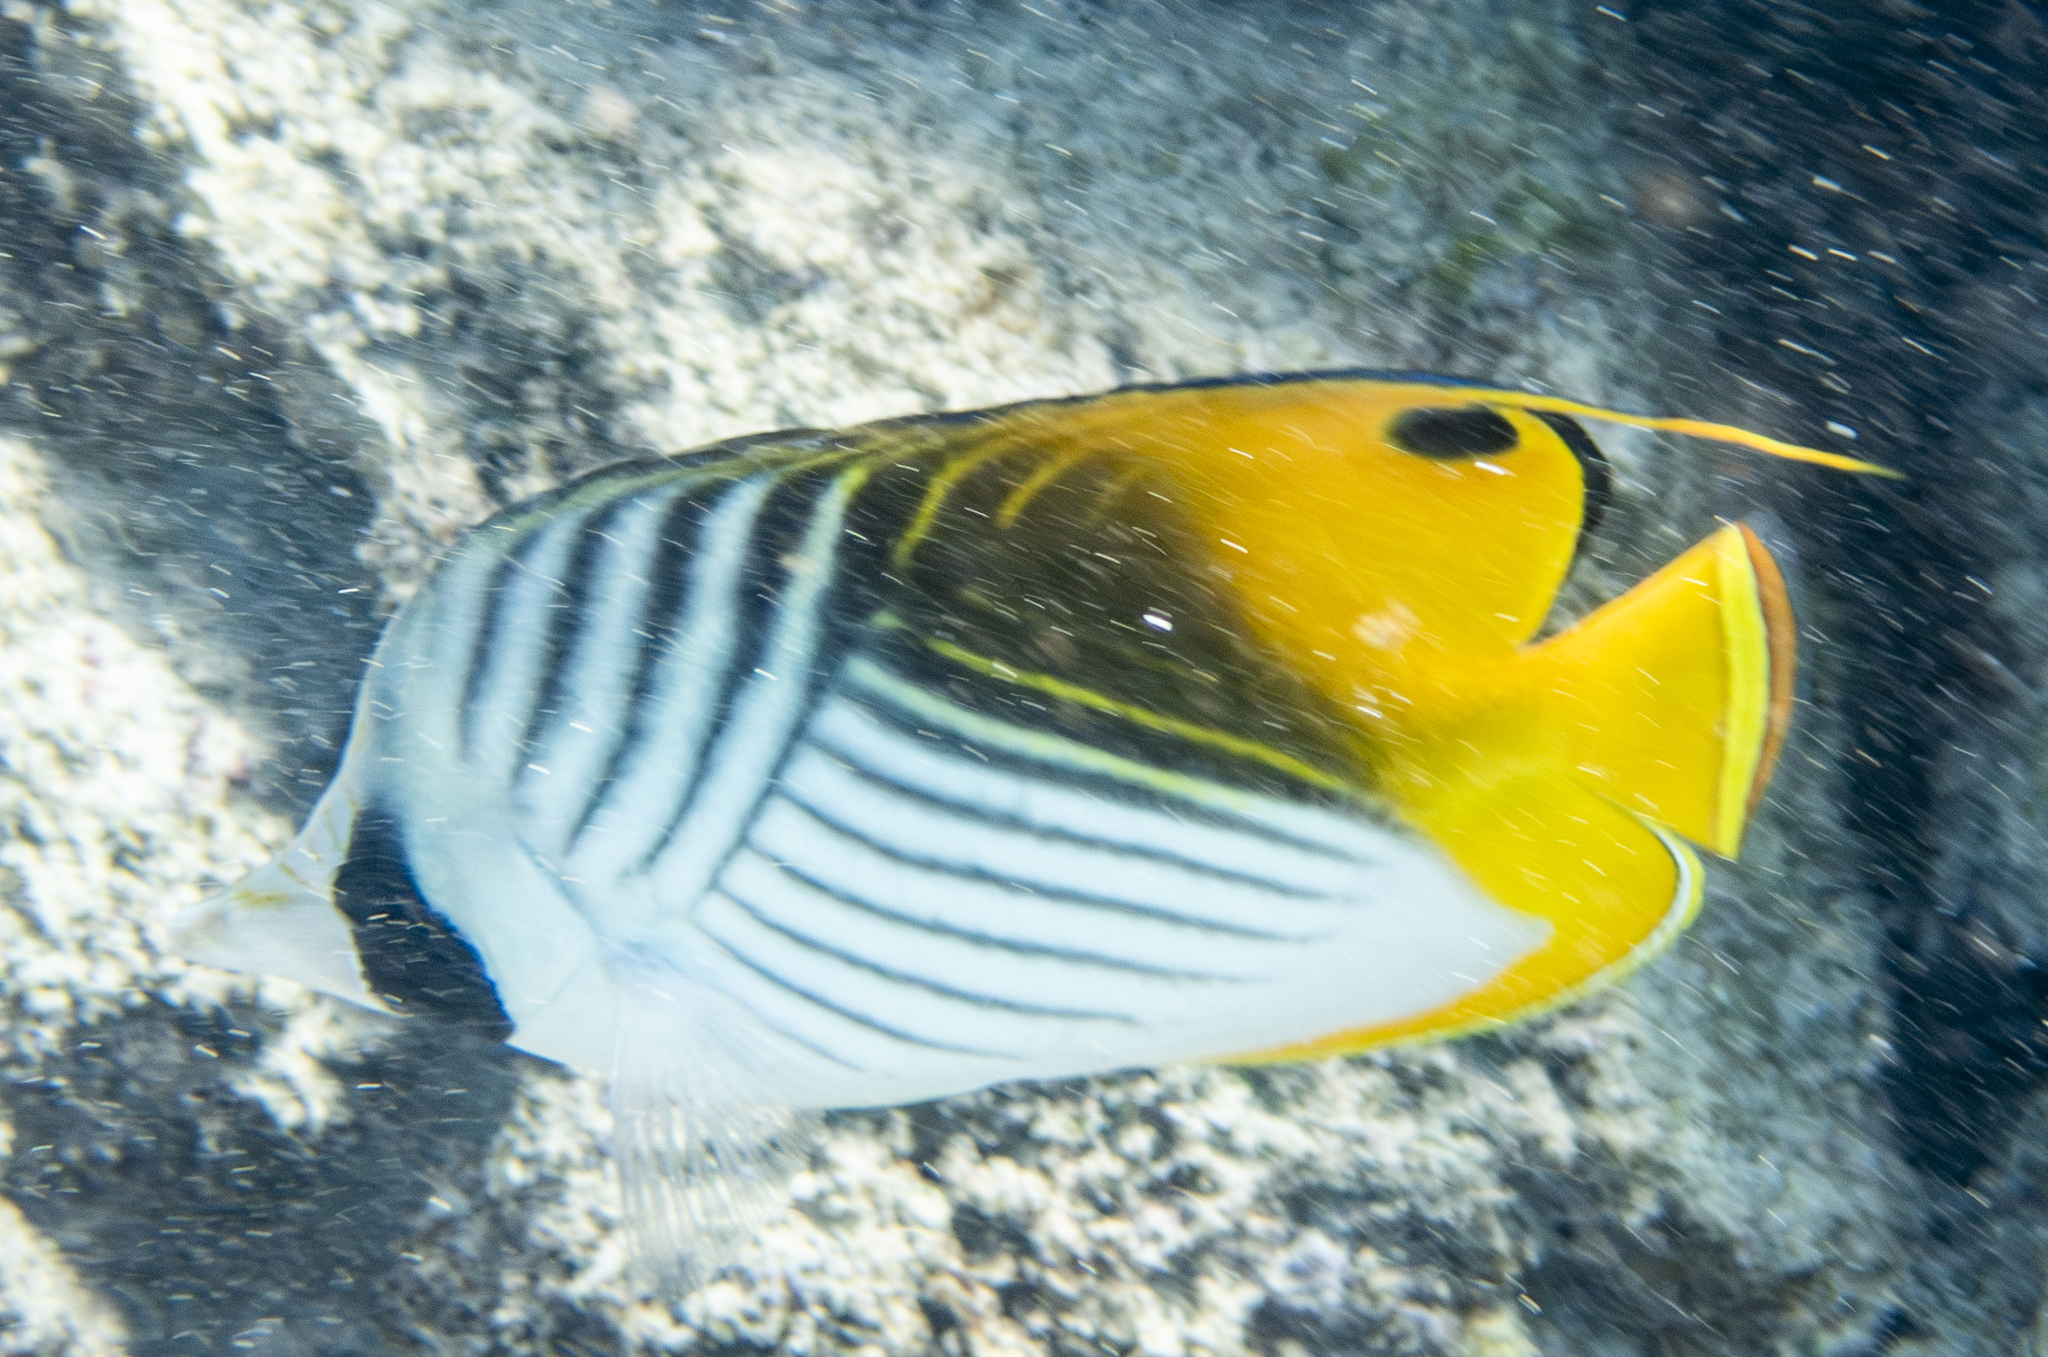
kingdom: Animalia
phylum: Chordata
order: Perciformes
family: Chaetodontidae
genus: Chaetodon
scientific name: Chaetodon auriga
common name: Threadfin butterflyfish
